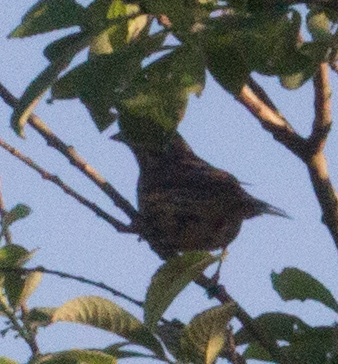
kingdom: Animalia
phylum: Chordata
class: Aves
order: Passeriformes
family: Emberizidae
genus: Emberiza
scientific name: Emberiza citrinella
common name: Yellowhammer
